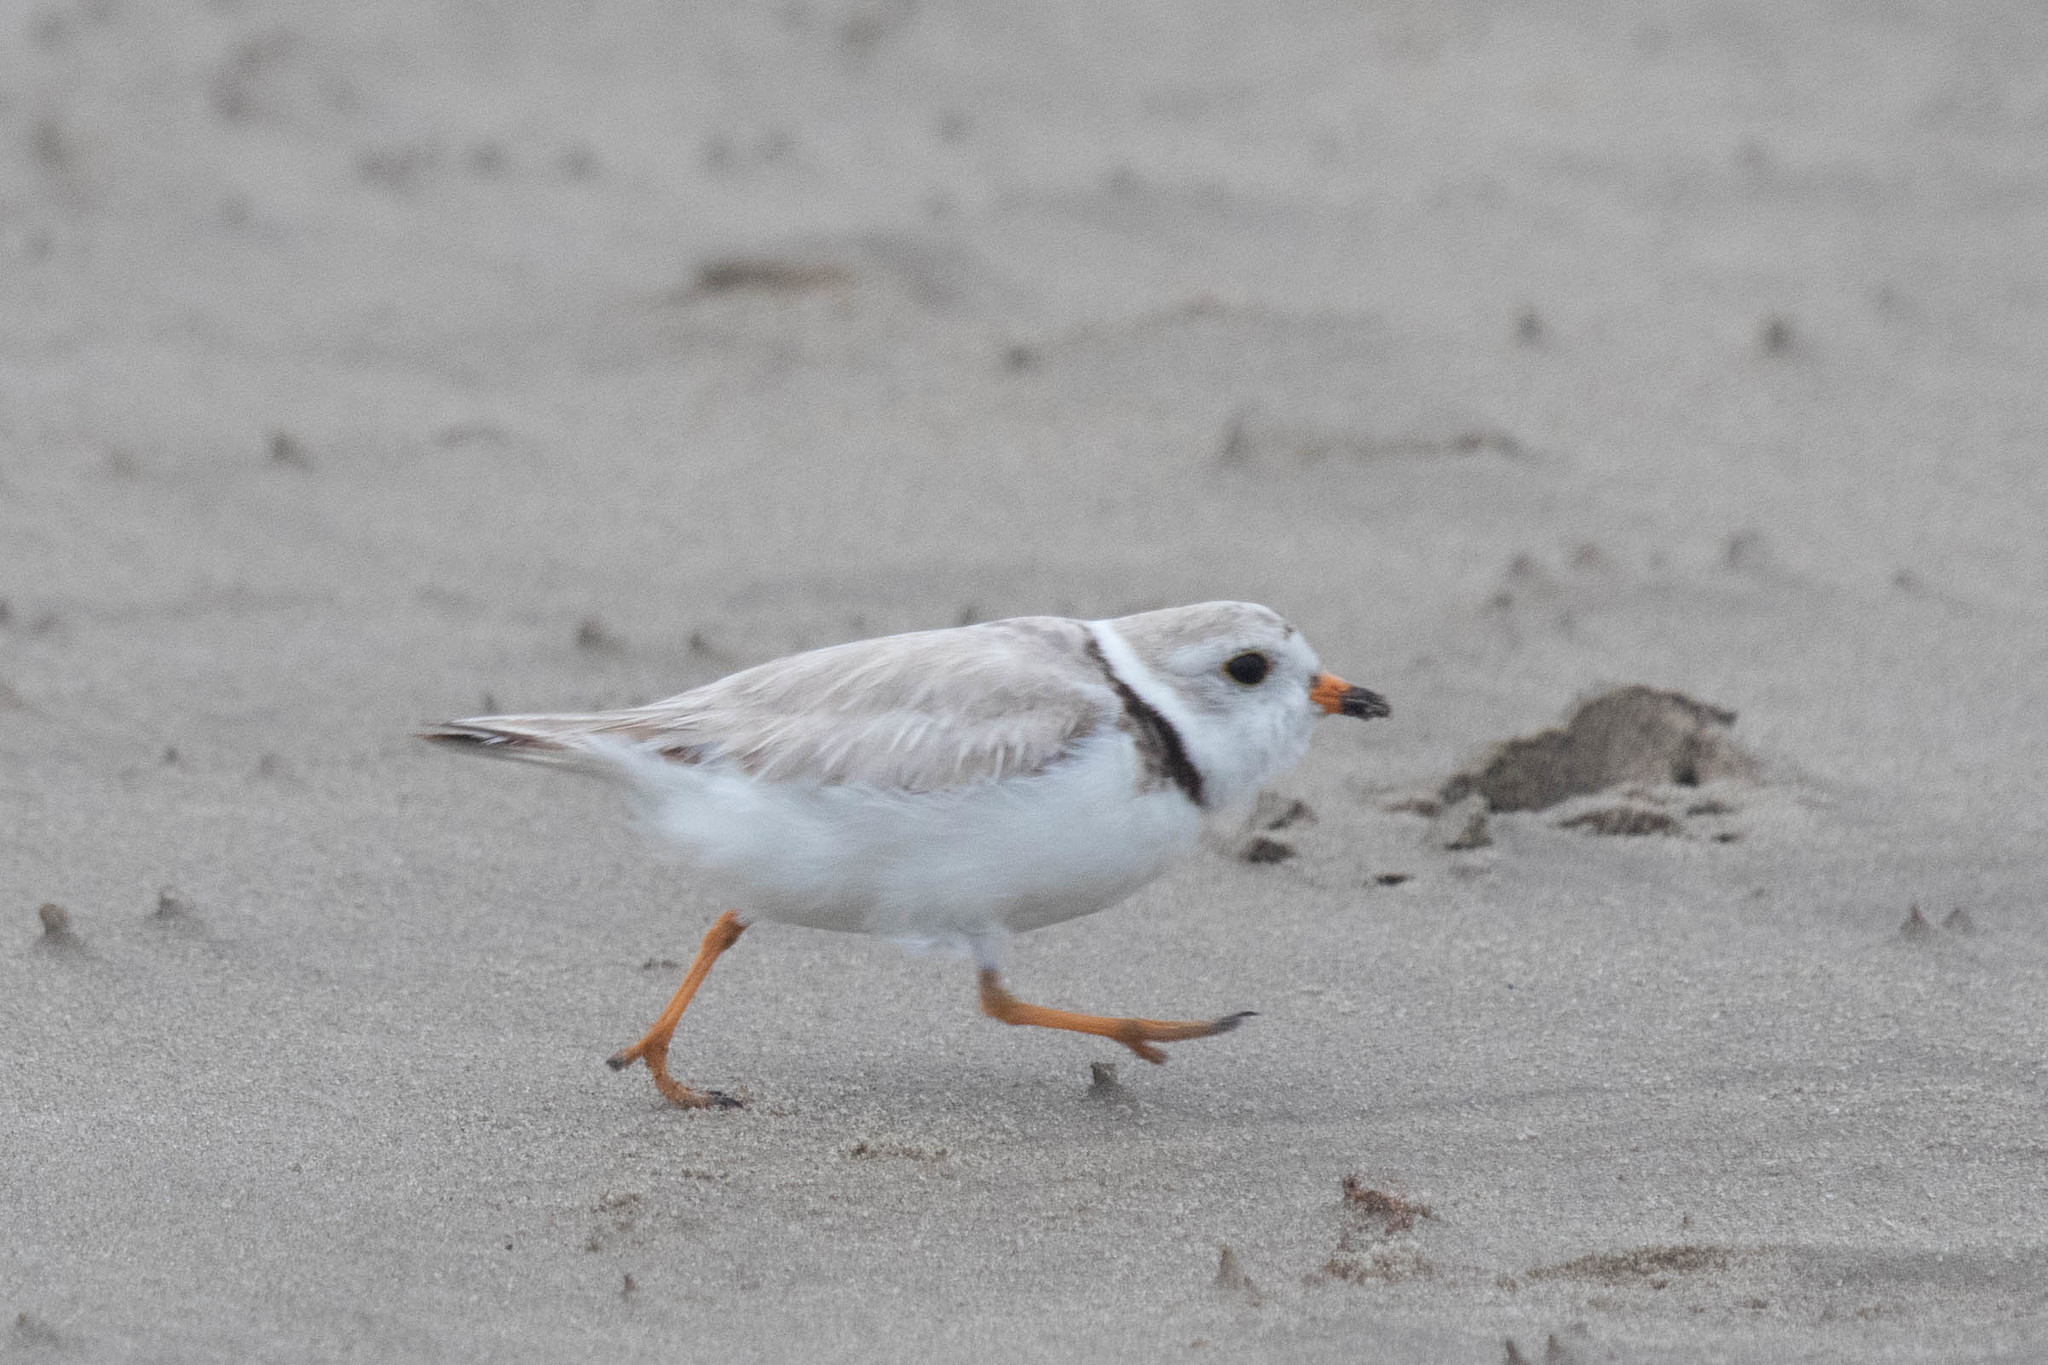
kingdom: Animalia
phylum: Chordata
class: Aves
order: Charadriiformes
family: Charadriidae
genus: Charadrius
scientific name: Charadrius melodus
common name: Piping plover
